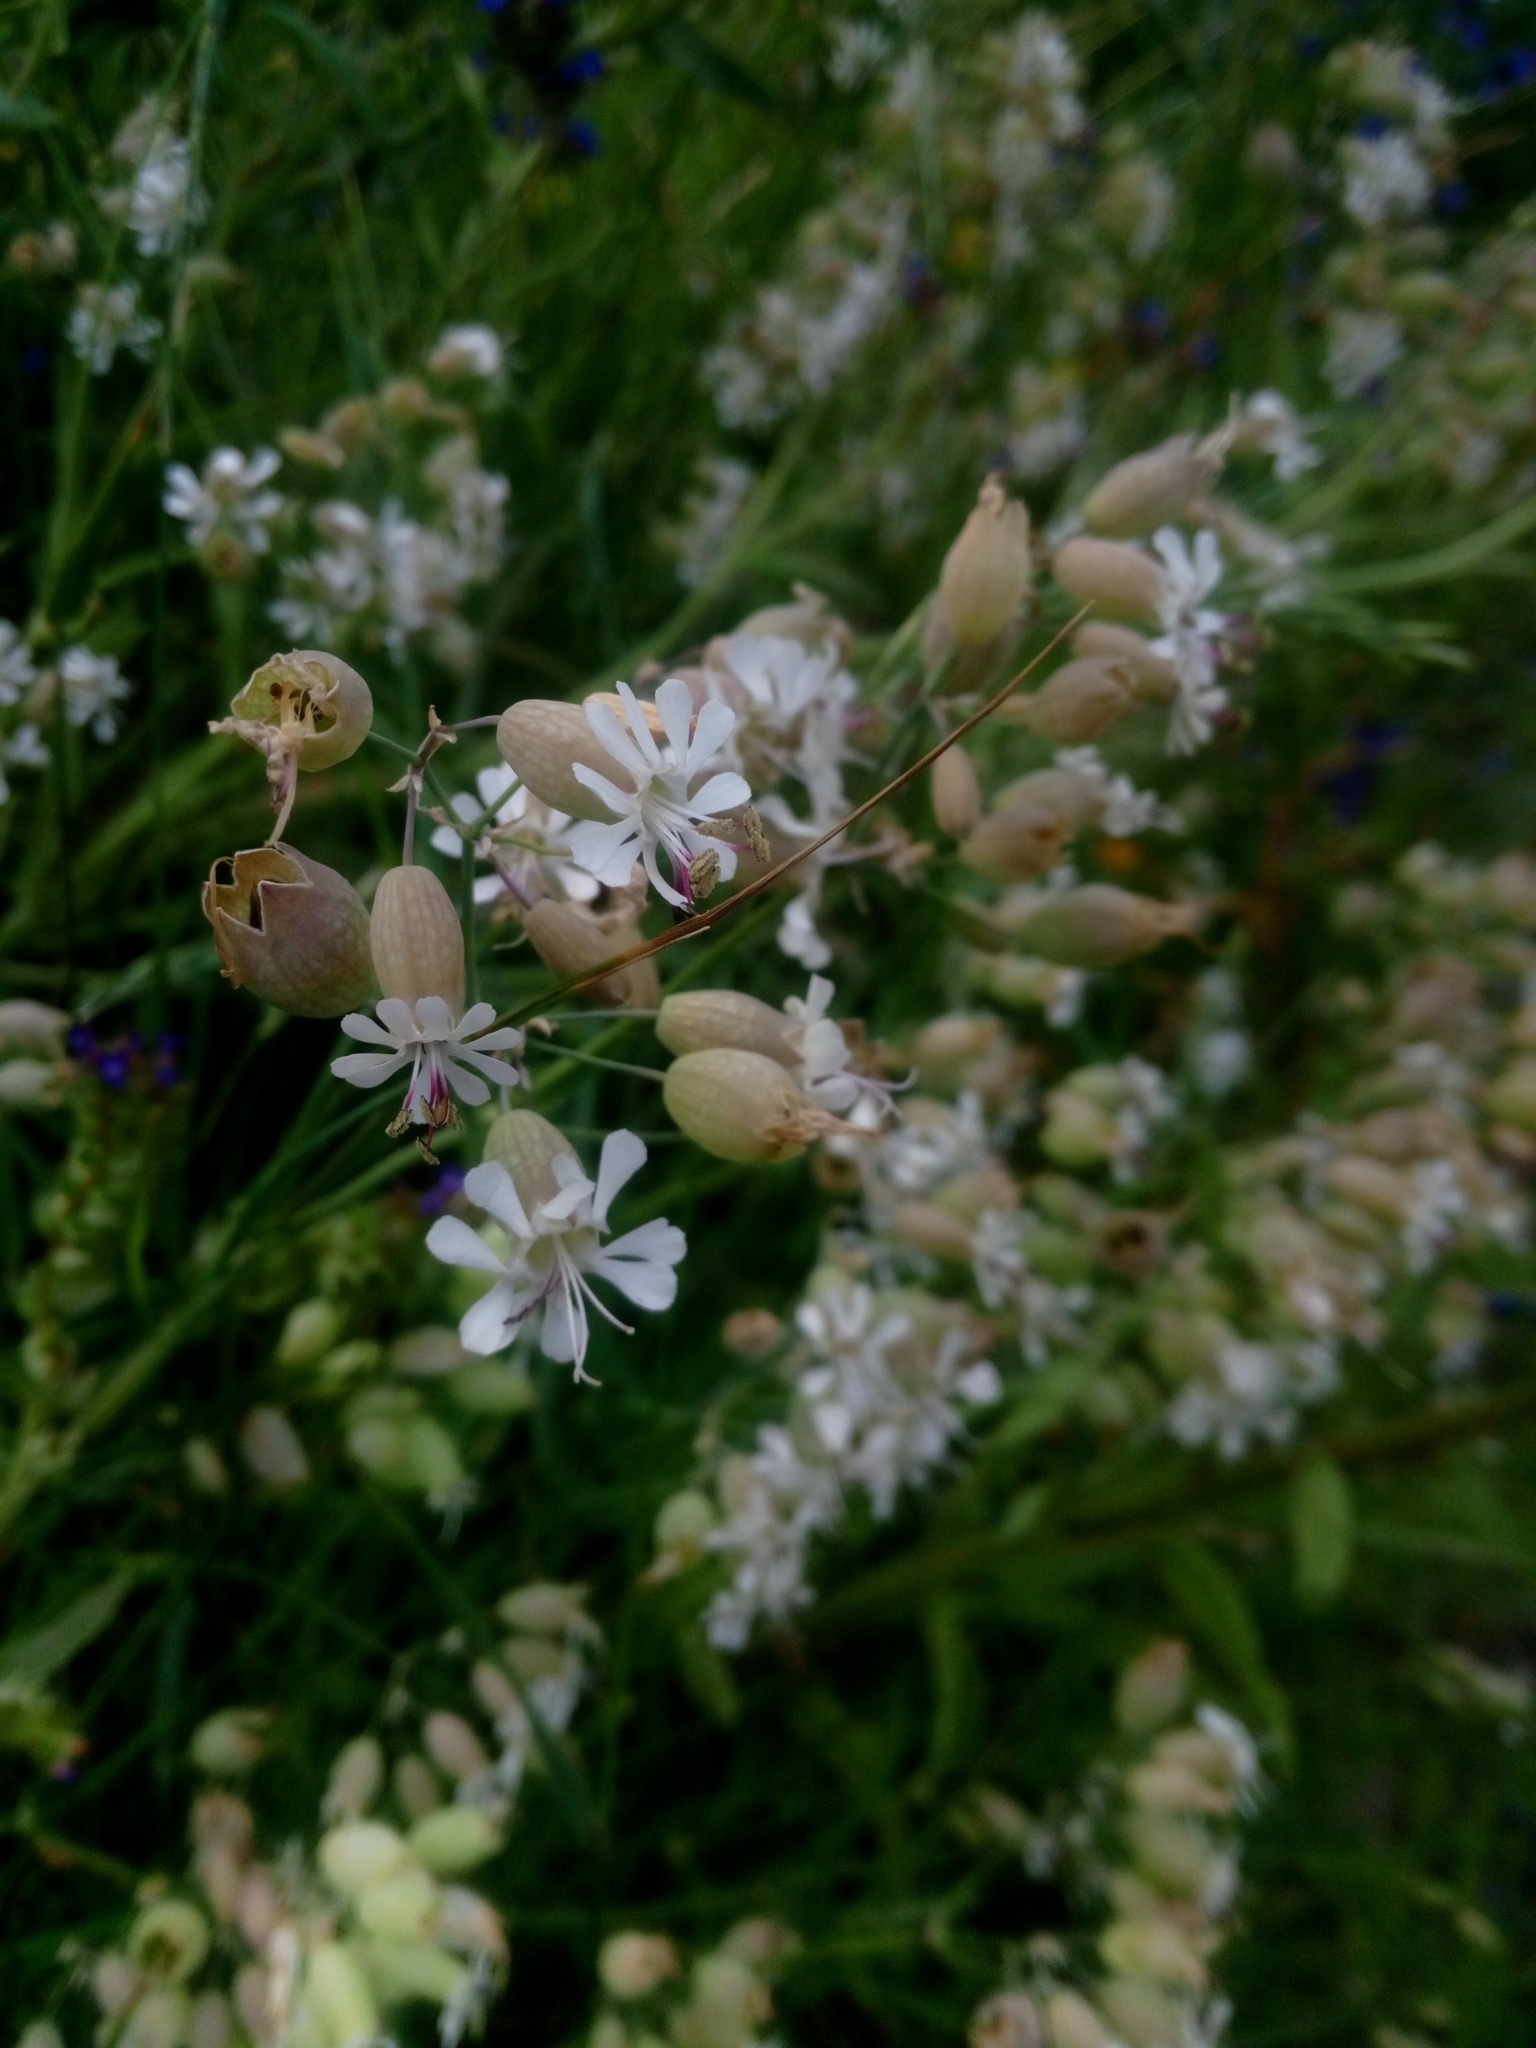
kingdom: Plantae
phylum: Tracheophyta
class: Magnoliopsida
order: Caryophyllales
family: Caryophyllaceae
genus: Silene
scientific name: Silene vulgaris
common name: Bladder campion
